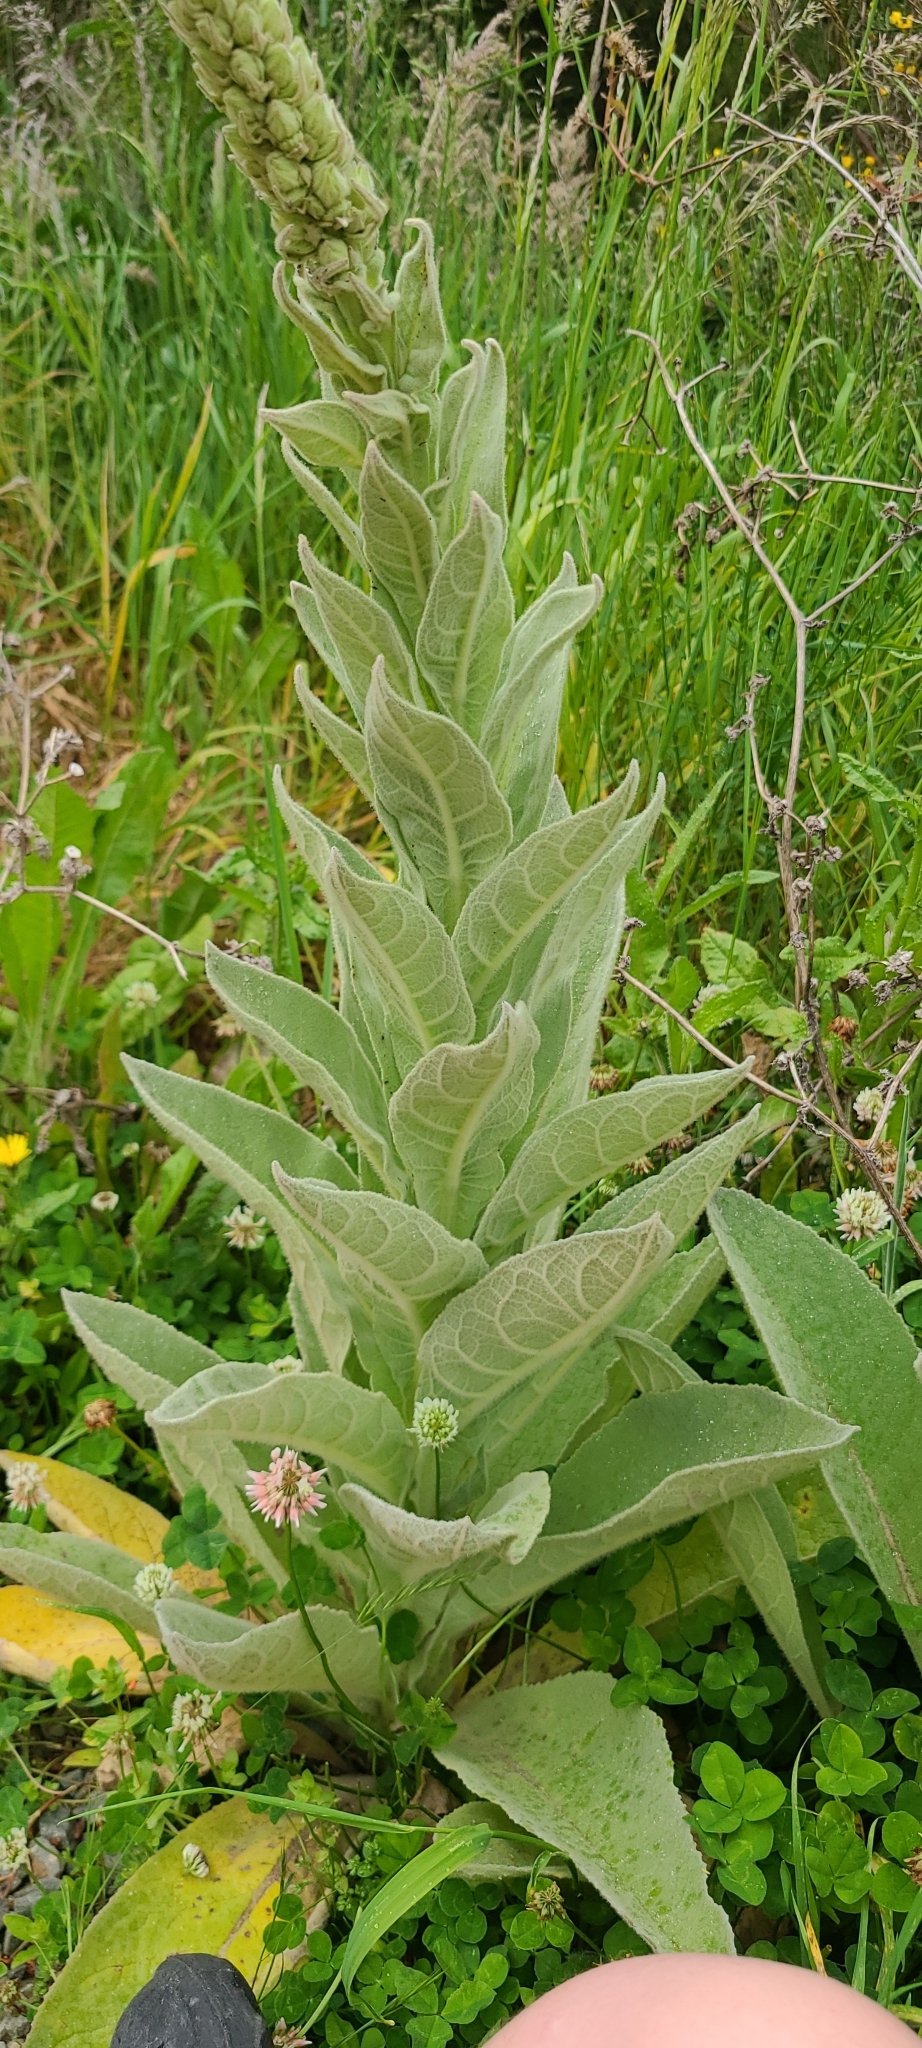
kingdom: Plantae
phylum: Tracheophyta
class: Magnoliopsida
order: Lamiales
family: Scrophulariaceae
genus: Verbascum
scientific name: Verbascum thapsus
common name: Common mullein
